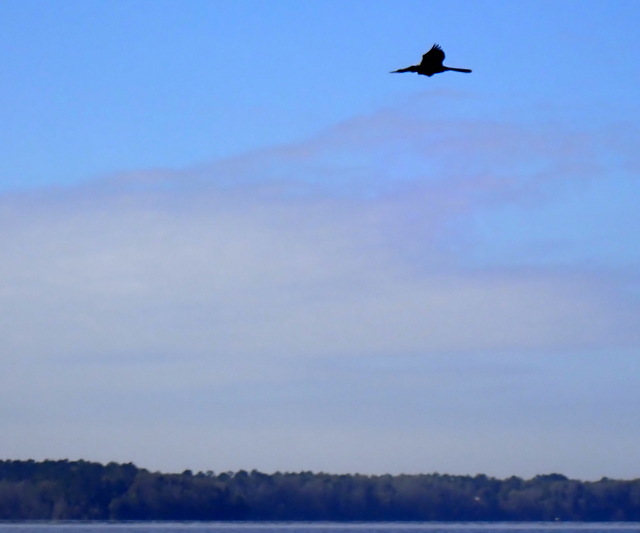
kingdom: Animalia
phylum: Chordata
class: Aves
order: Suliformes
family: Anhingidae
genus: Anhinga
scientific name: Anhinga anhinga
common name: Anhinga
